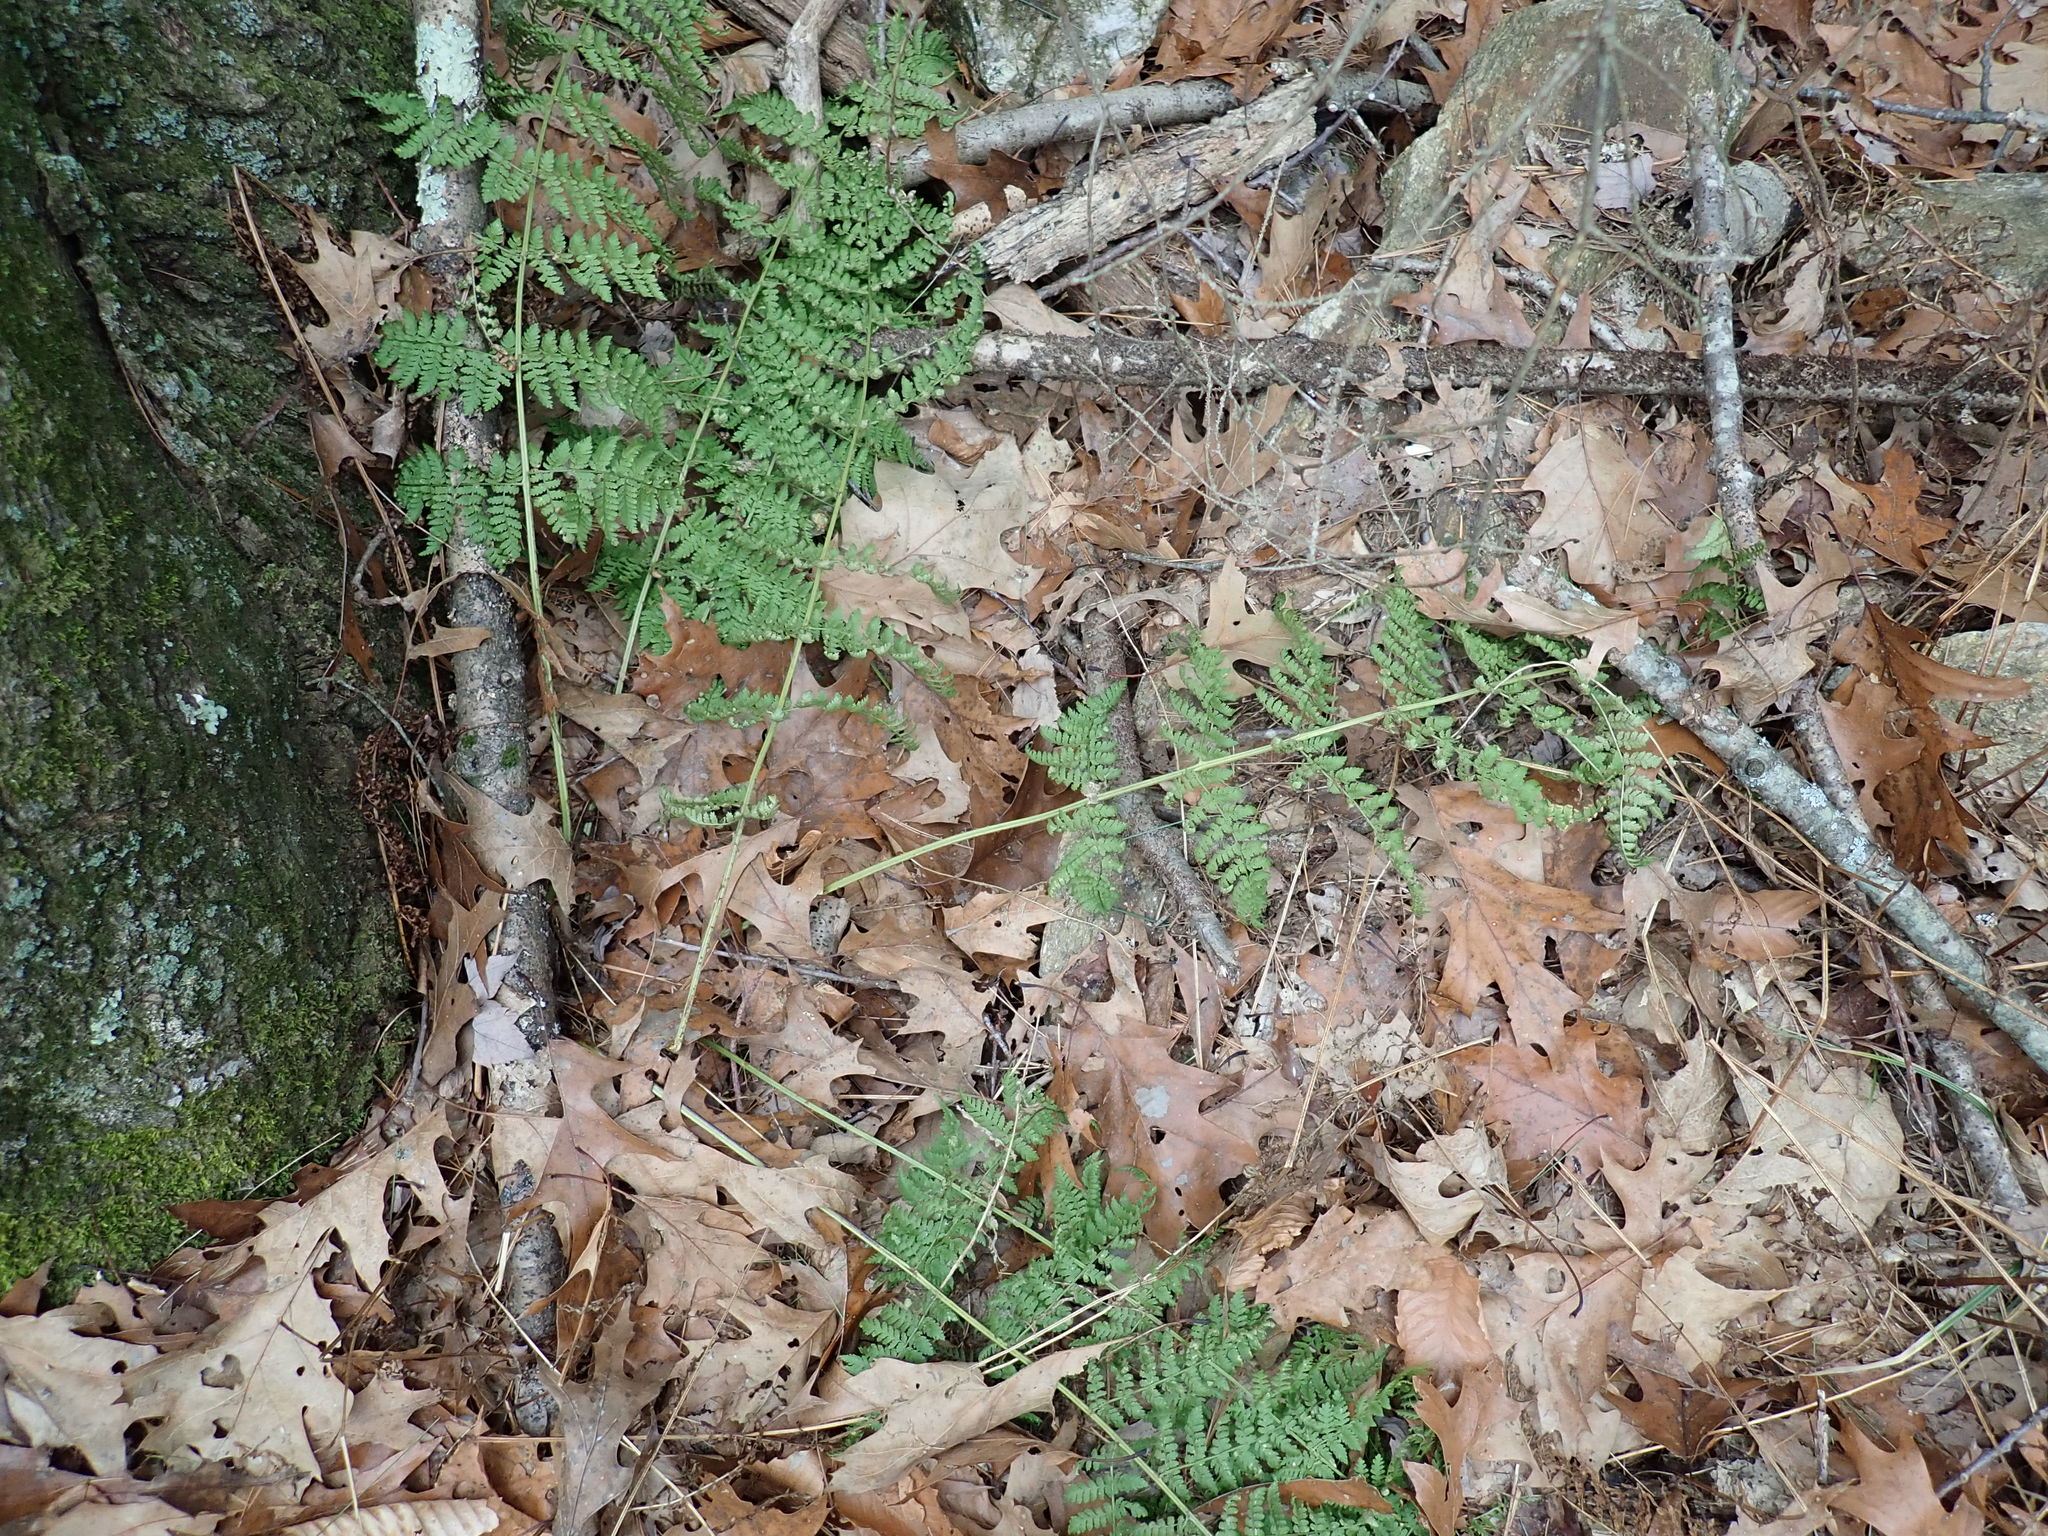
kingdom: Plantae
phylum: Tracheophyta
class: Polypodiopsida
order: Polypodiales
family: Dryopteridaceae
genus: Dryopteris
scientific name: Dryopteris intermedia
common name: Evergreen wood fern
